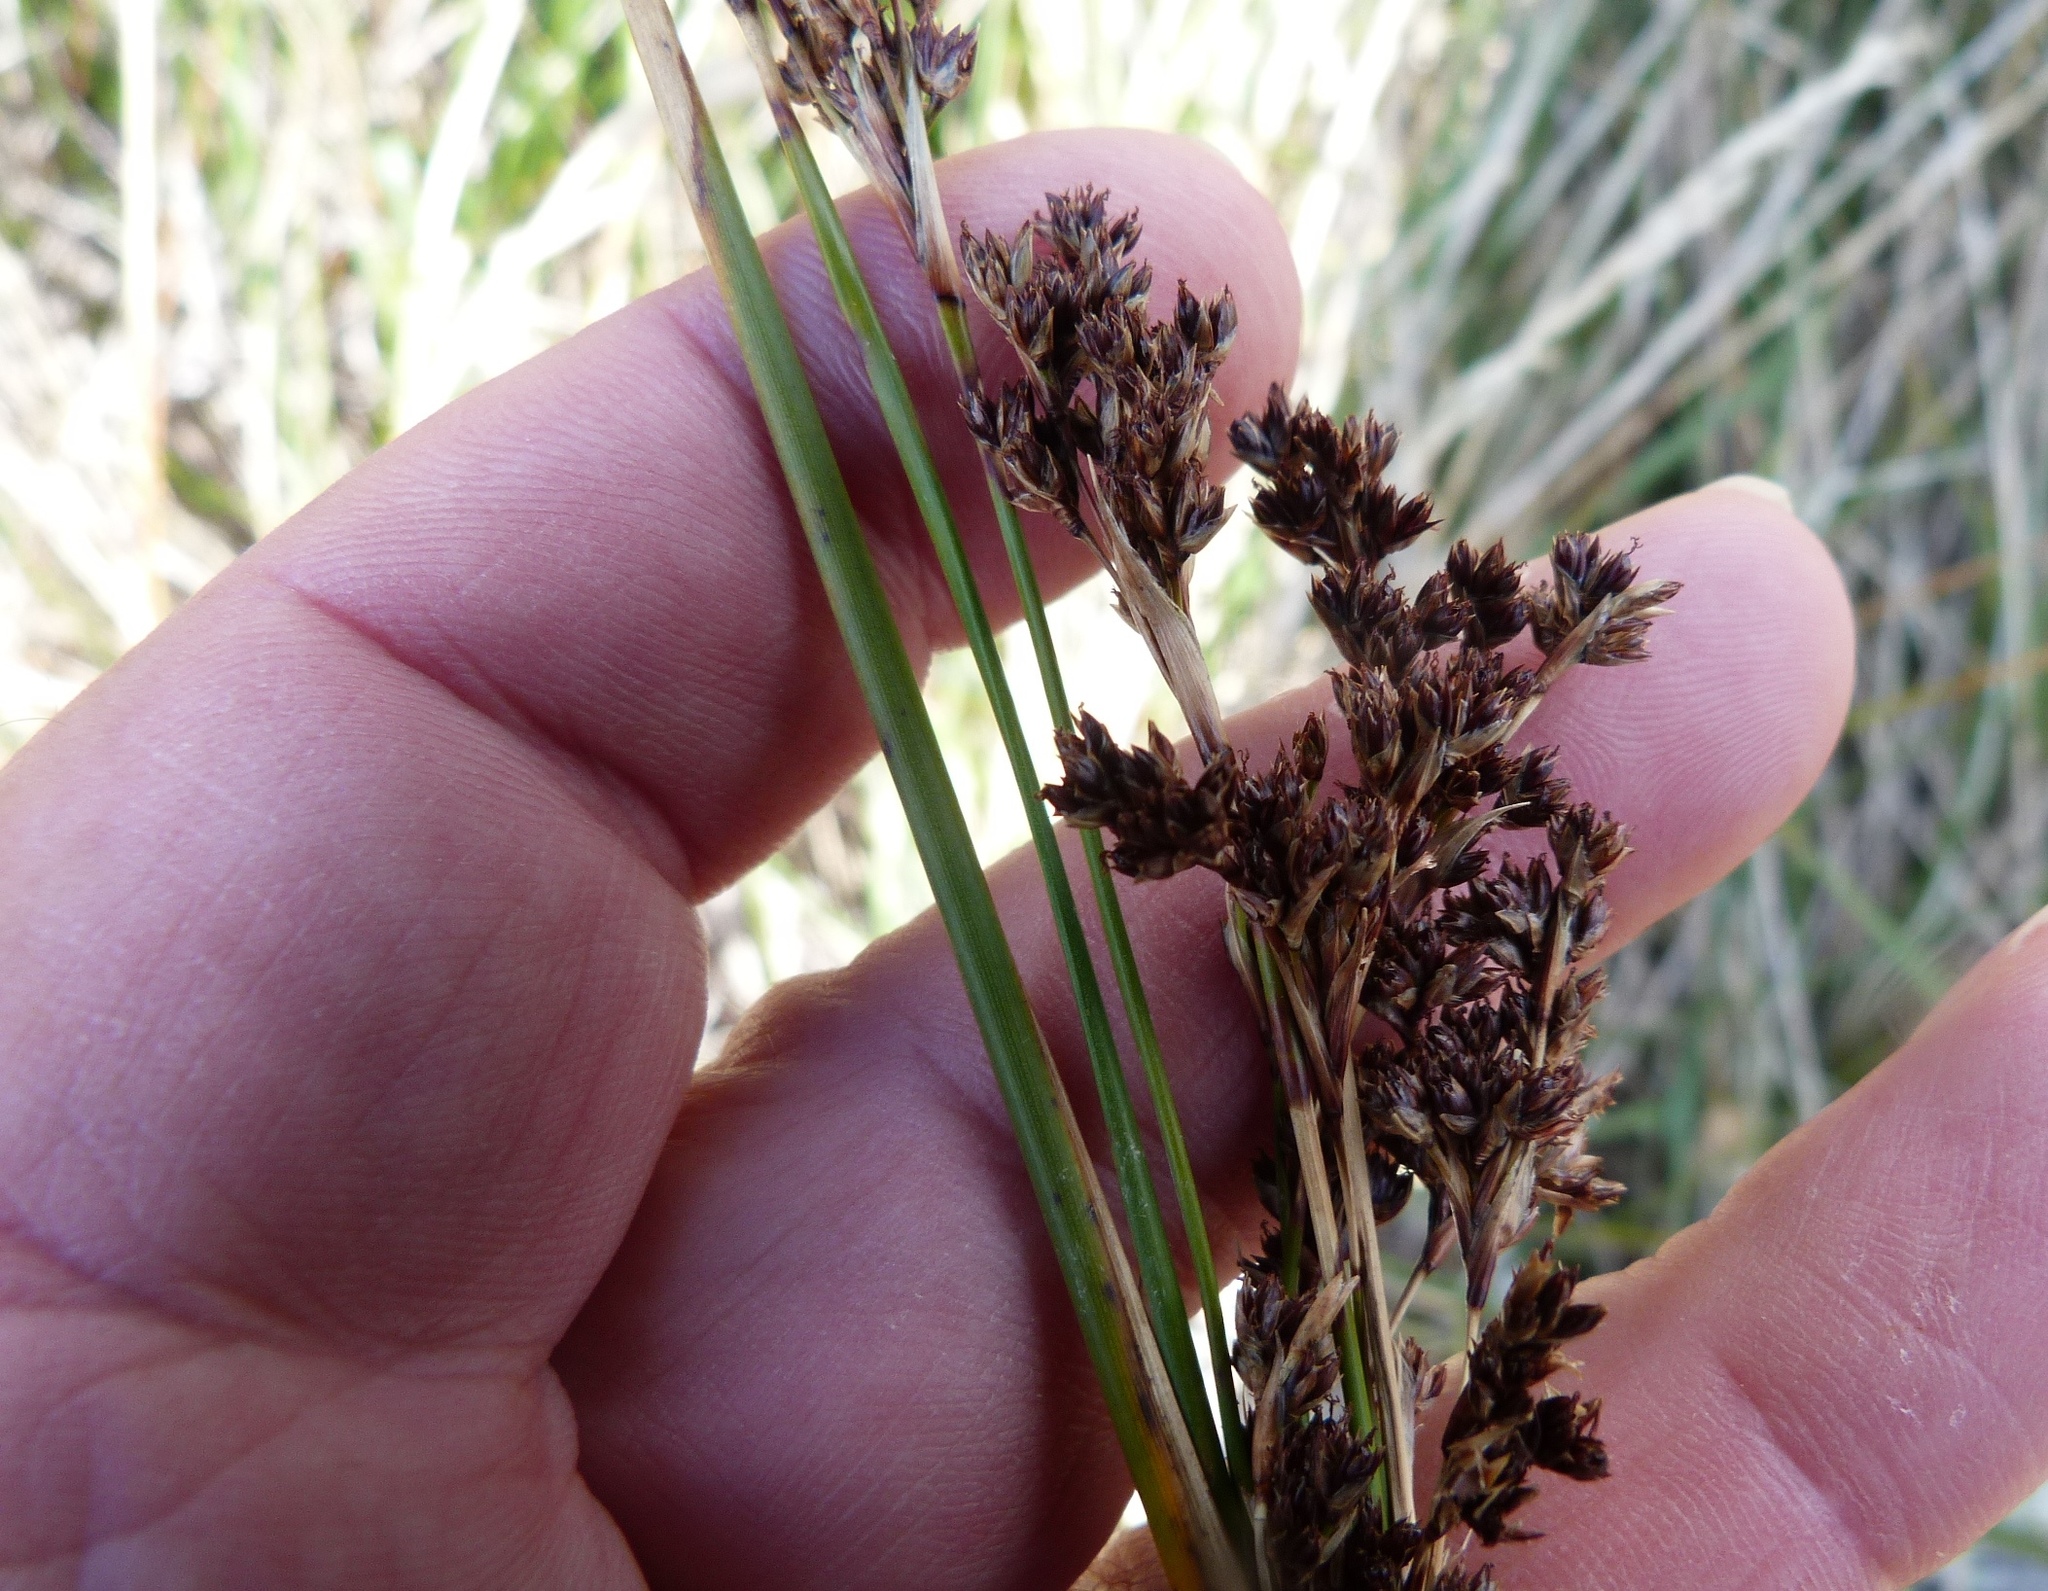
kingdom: Plantae
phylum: Tracheophyta
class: Liliopsida
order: Poales
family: Juncaceae
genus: Juncus
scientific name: Juncus kraussii
